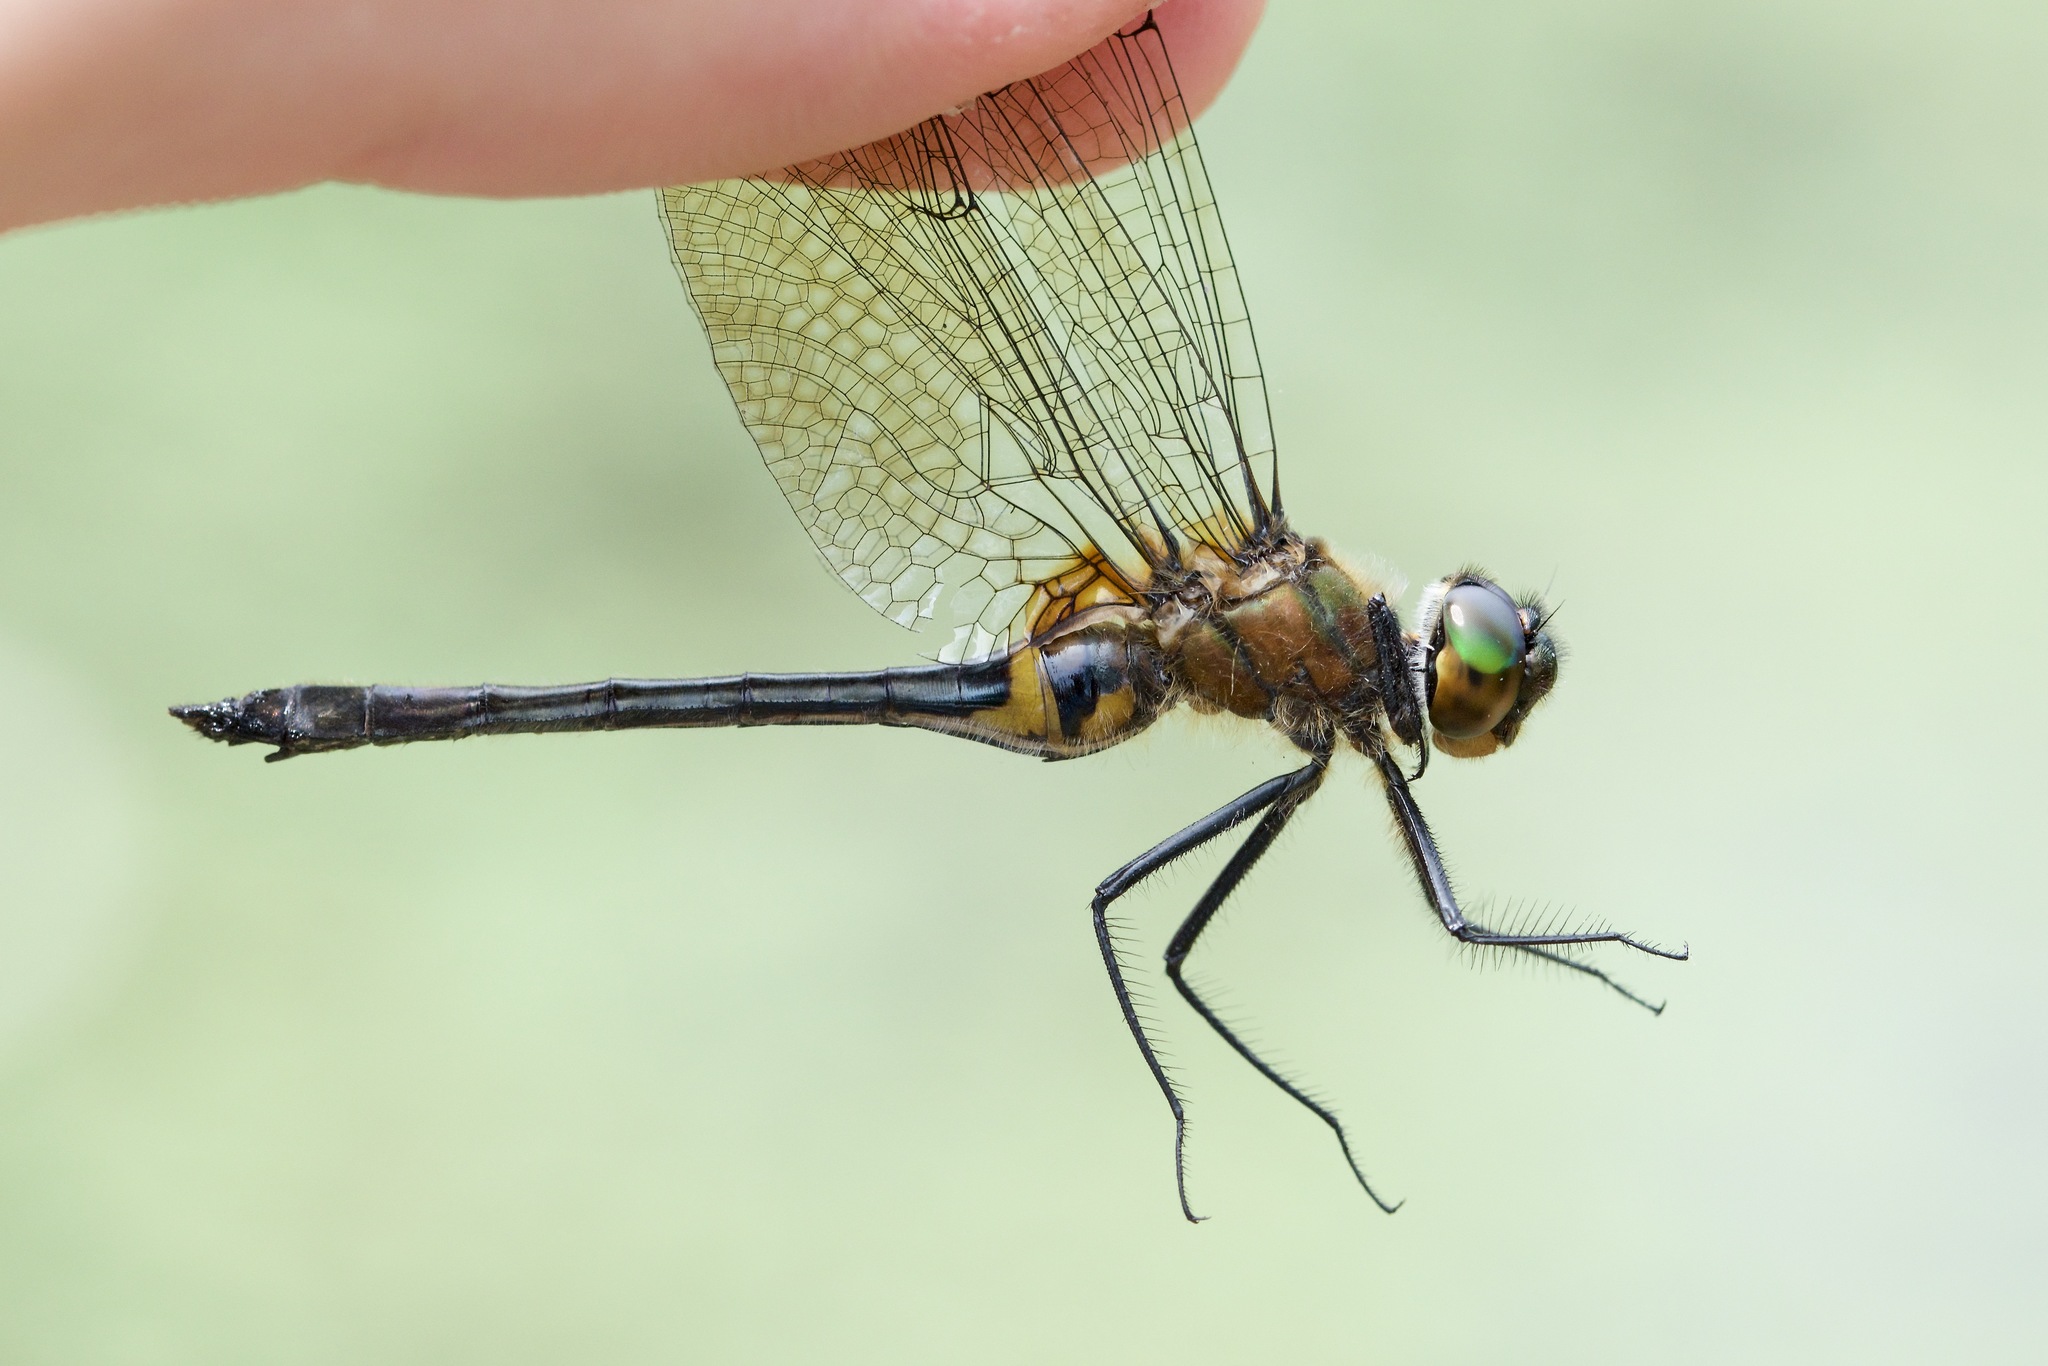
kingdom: Animalia
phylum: Arthropoda
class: Insecta
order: Odonata
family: Corduliidae
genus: Dorocordulia
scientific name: Dorocordulia libera
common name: Racket-tailed emerald
